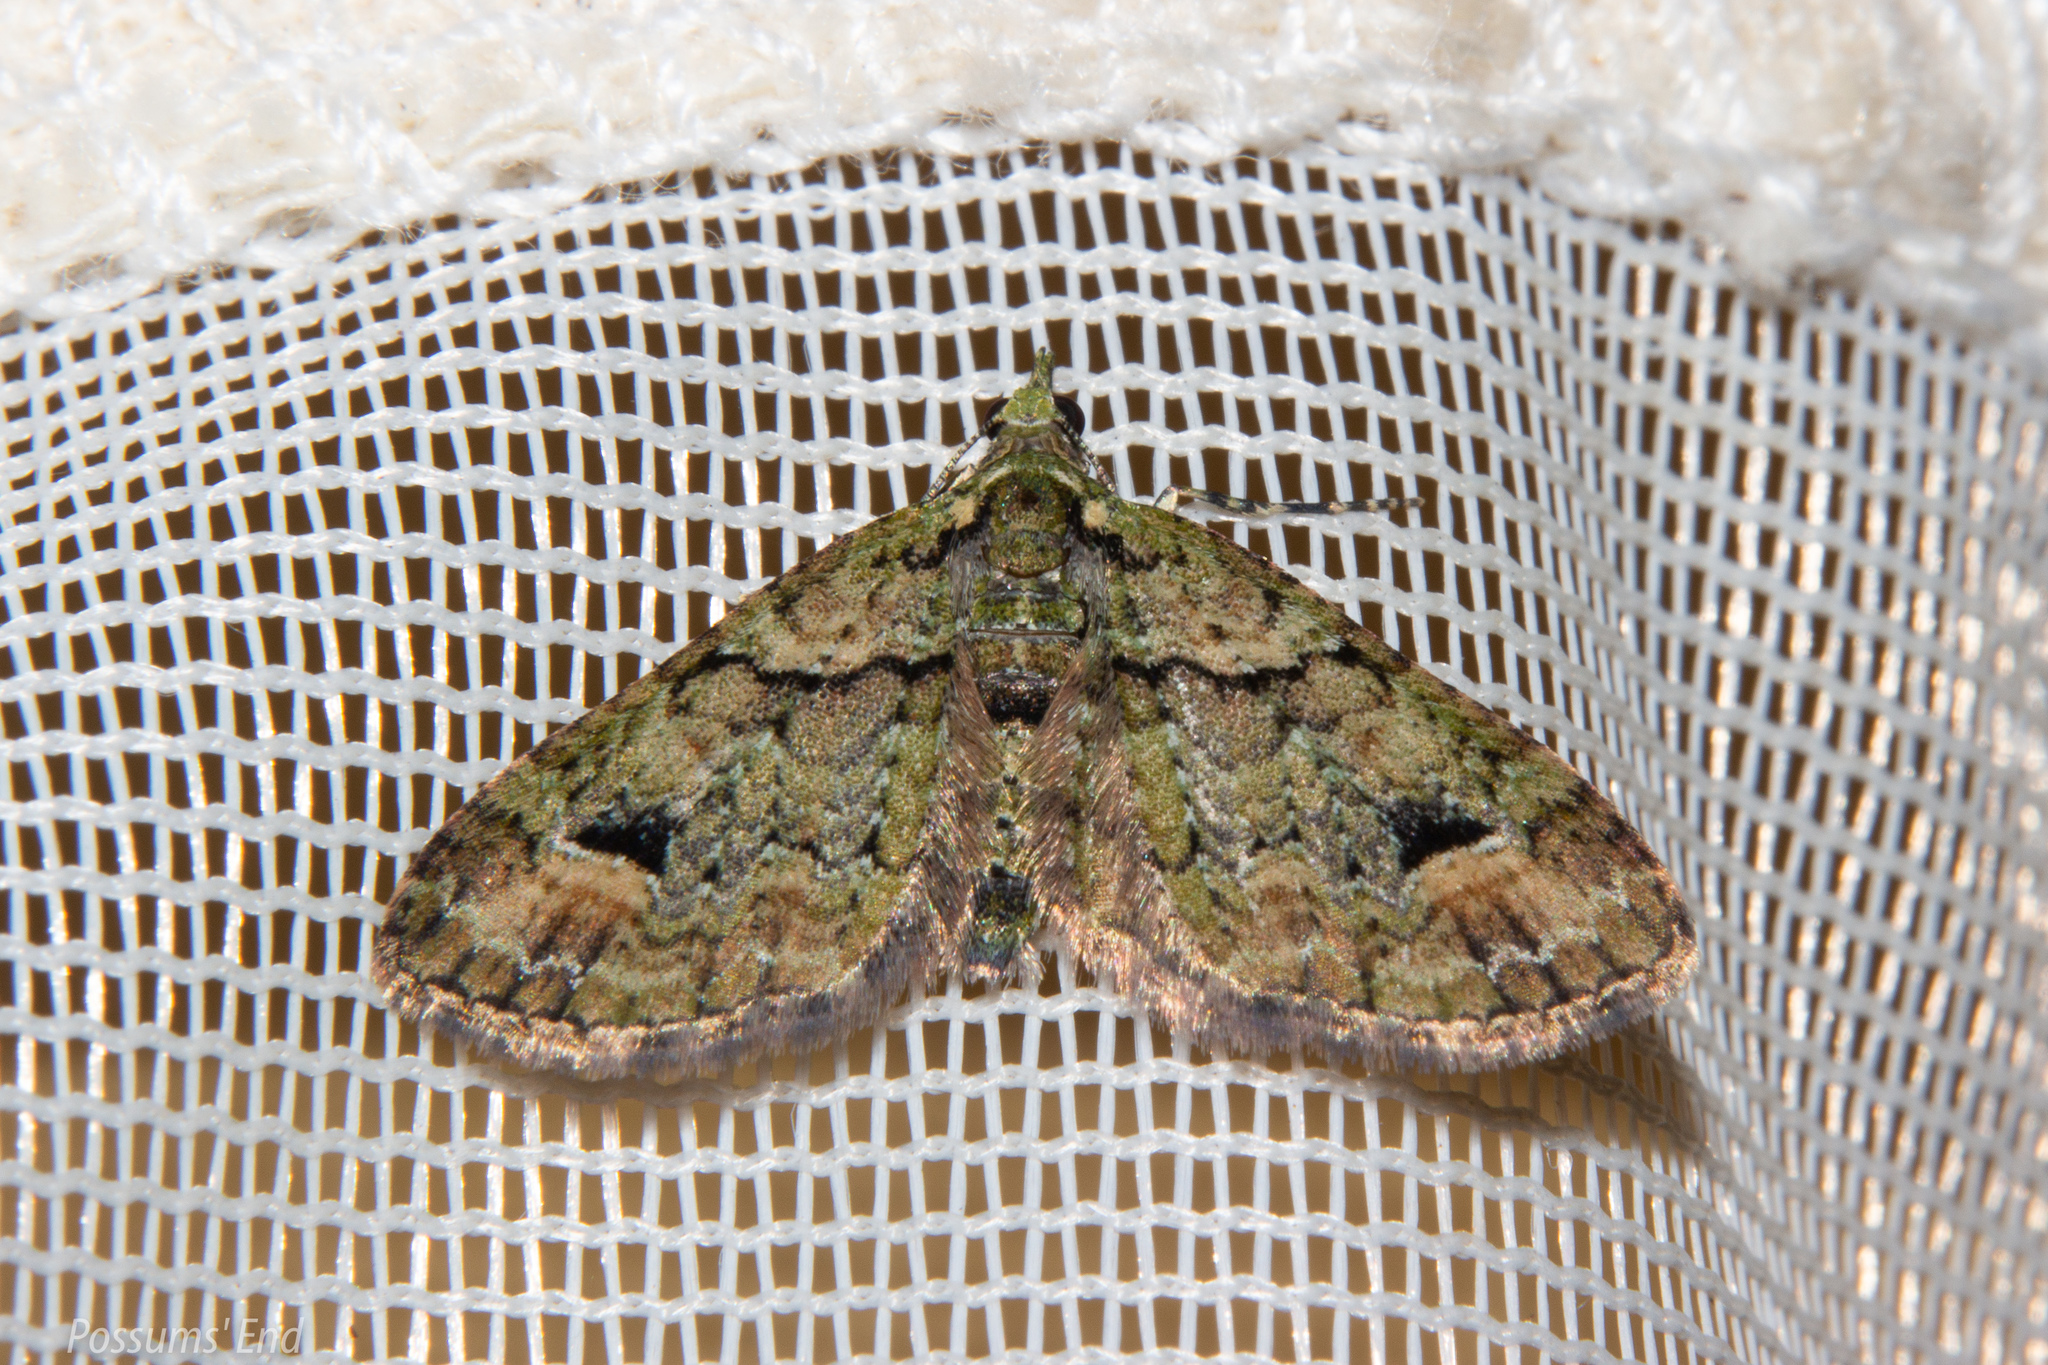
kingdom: Animalia
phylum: Arthropoda
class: Insecta
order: Lepidoptera
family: Geometridae
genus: Idaea
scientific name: Idaea mutanda
